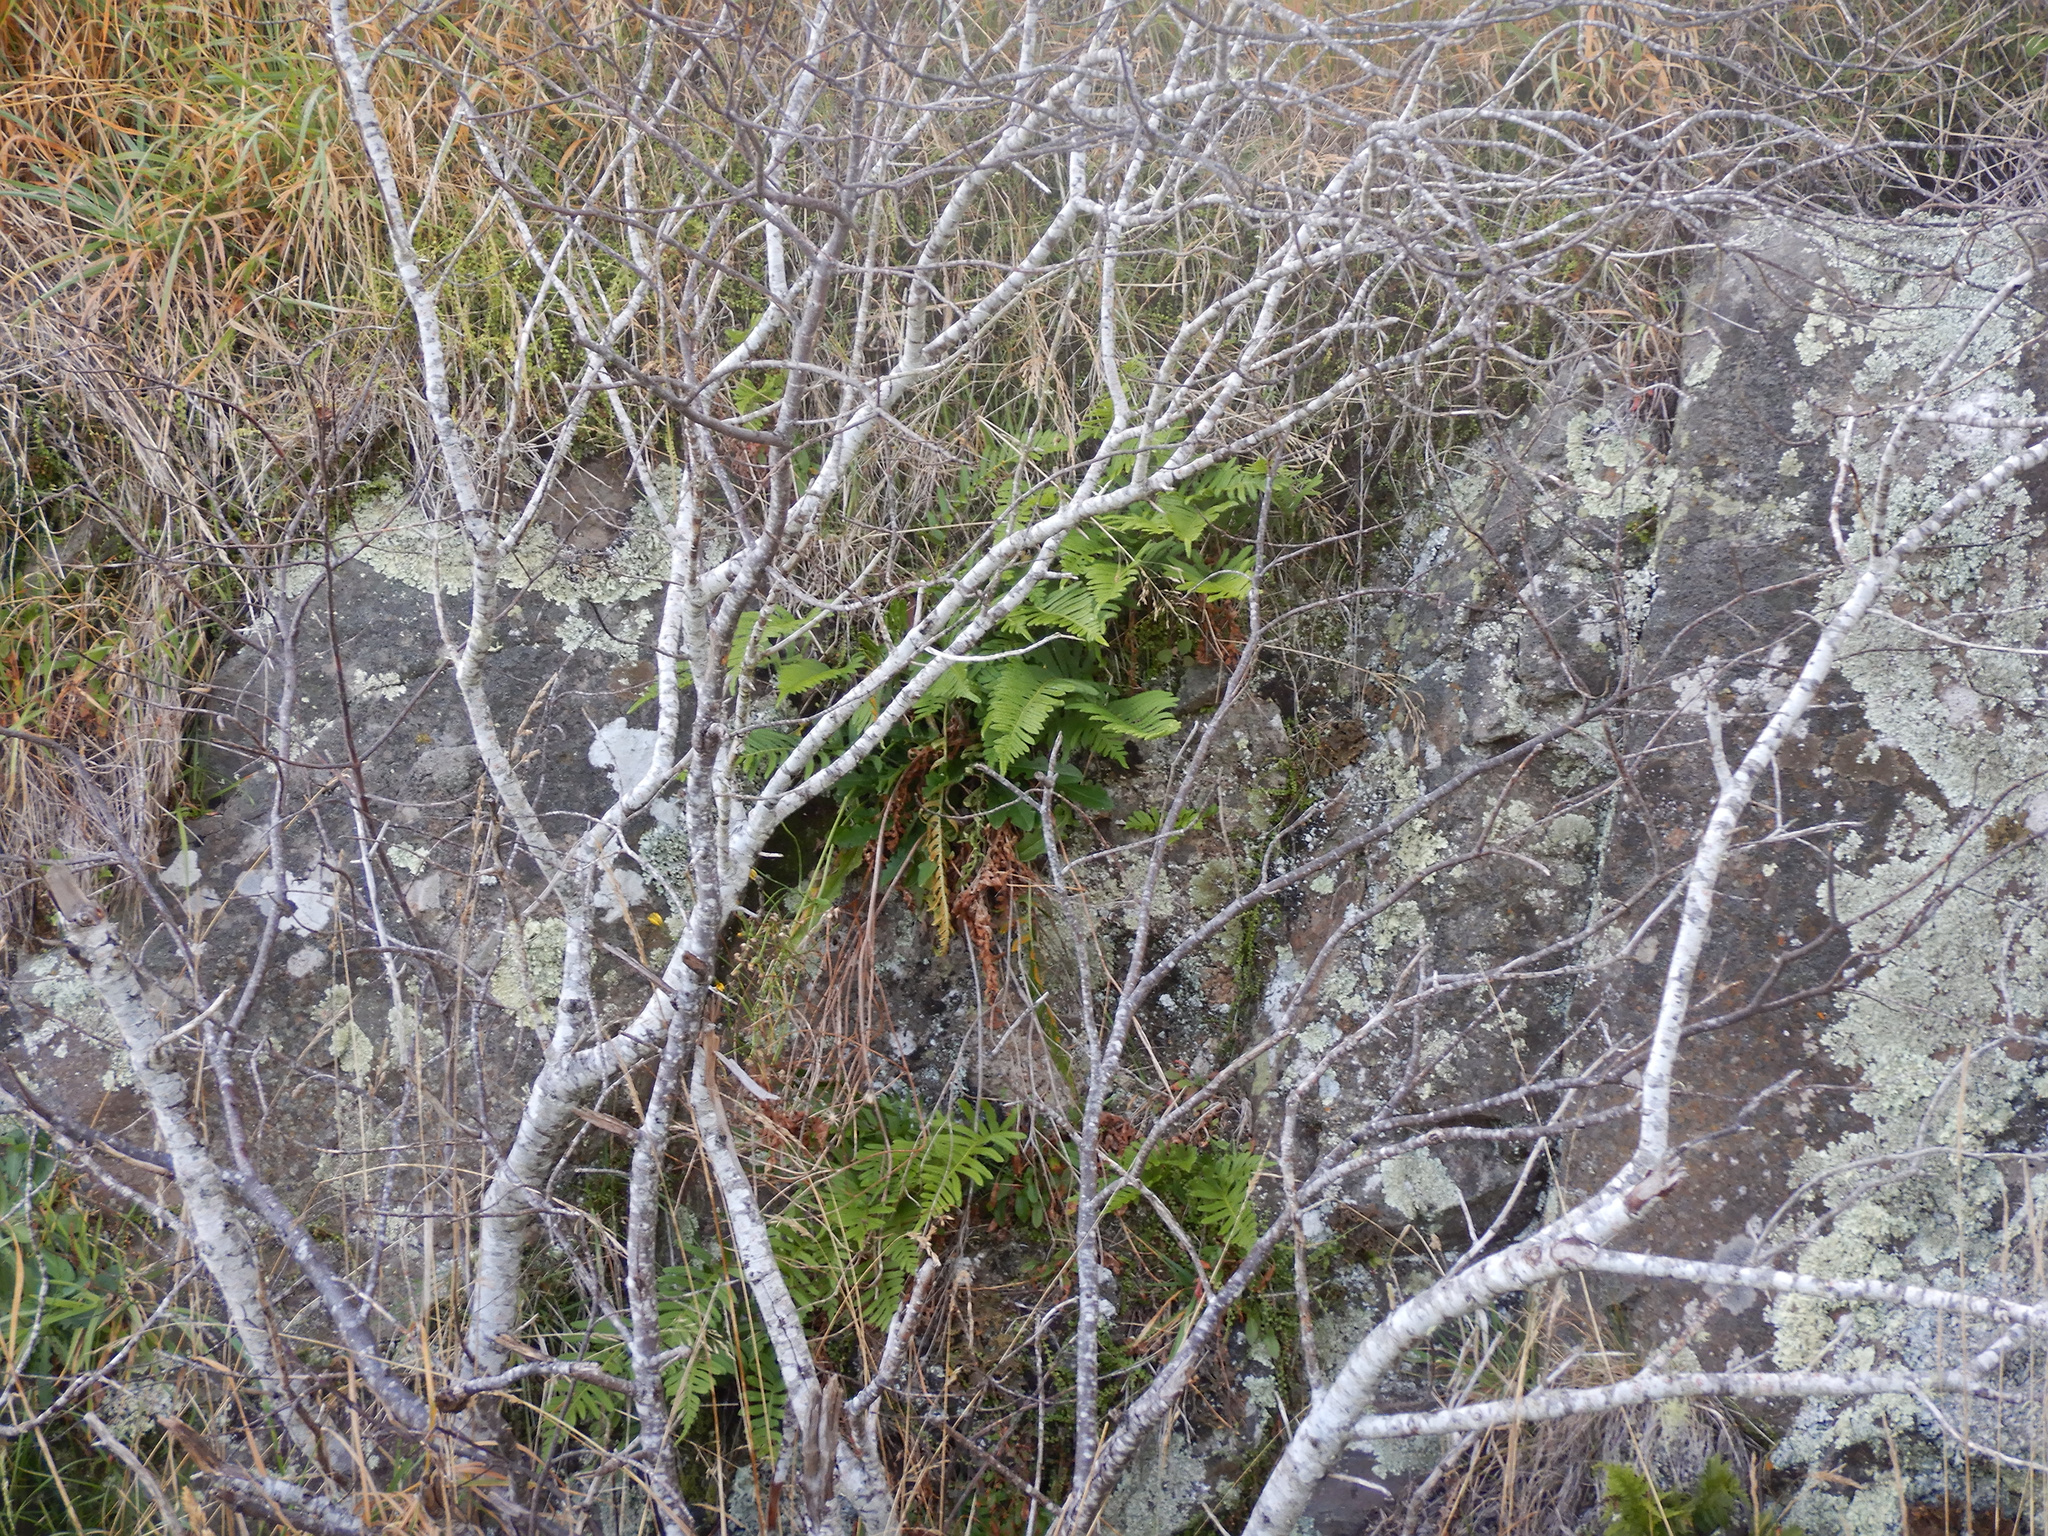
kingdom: Plantae
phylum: Tracheophyta
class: Polypodiopsida
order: Polypodiales
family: Polypodiaceae
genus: Polypodium
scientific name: Polypodium vulgare
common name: Common polypody
